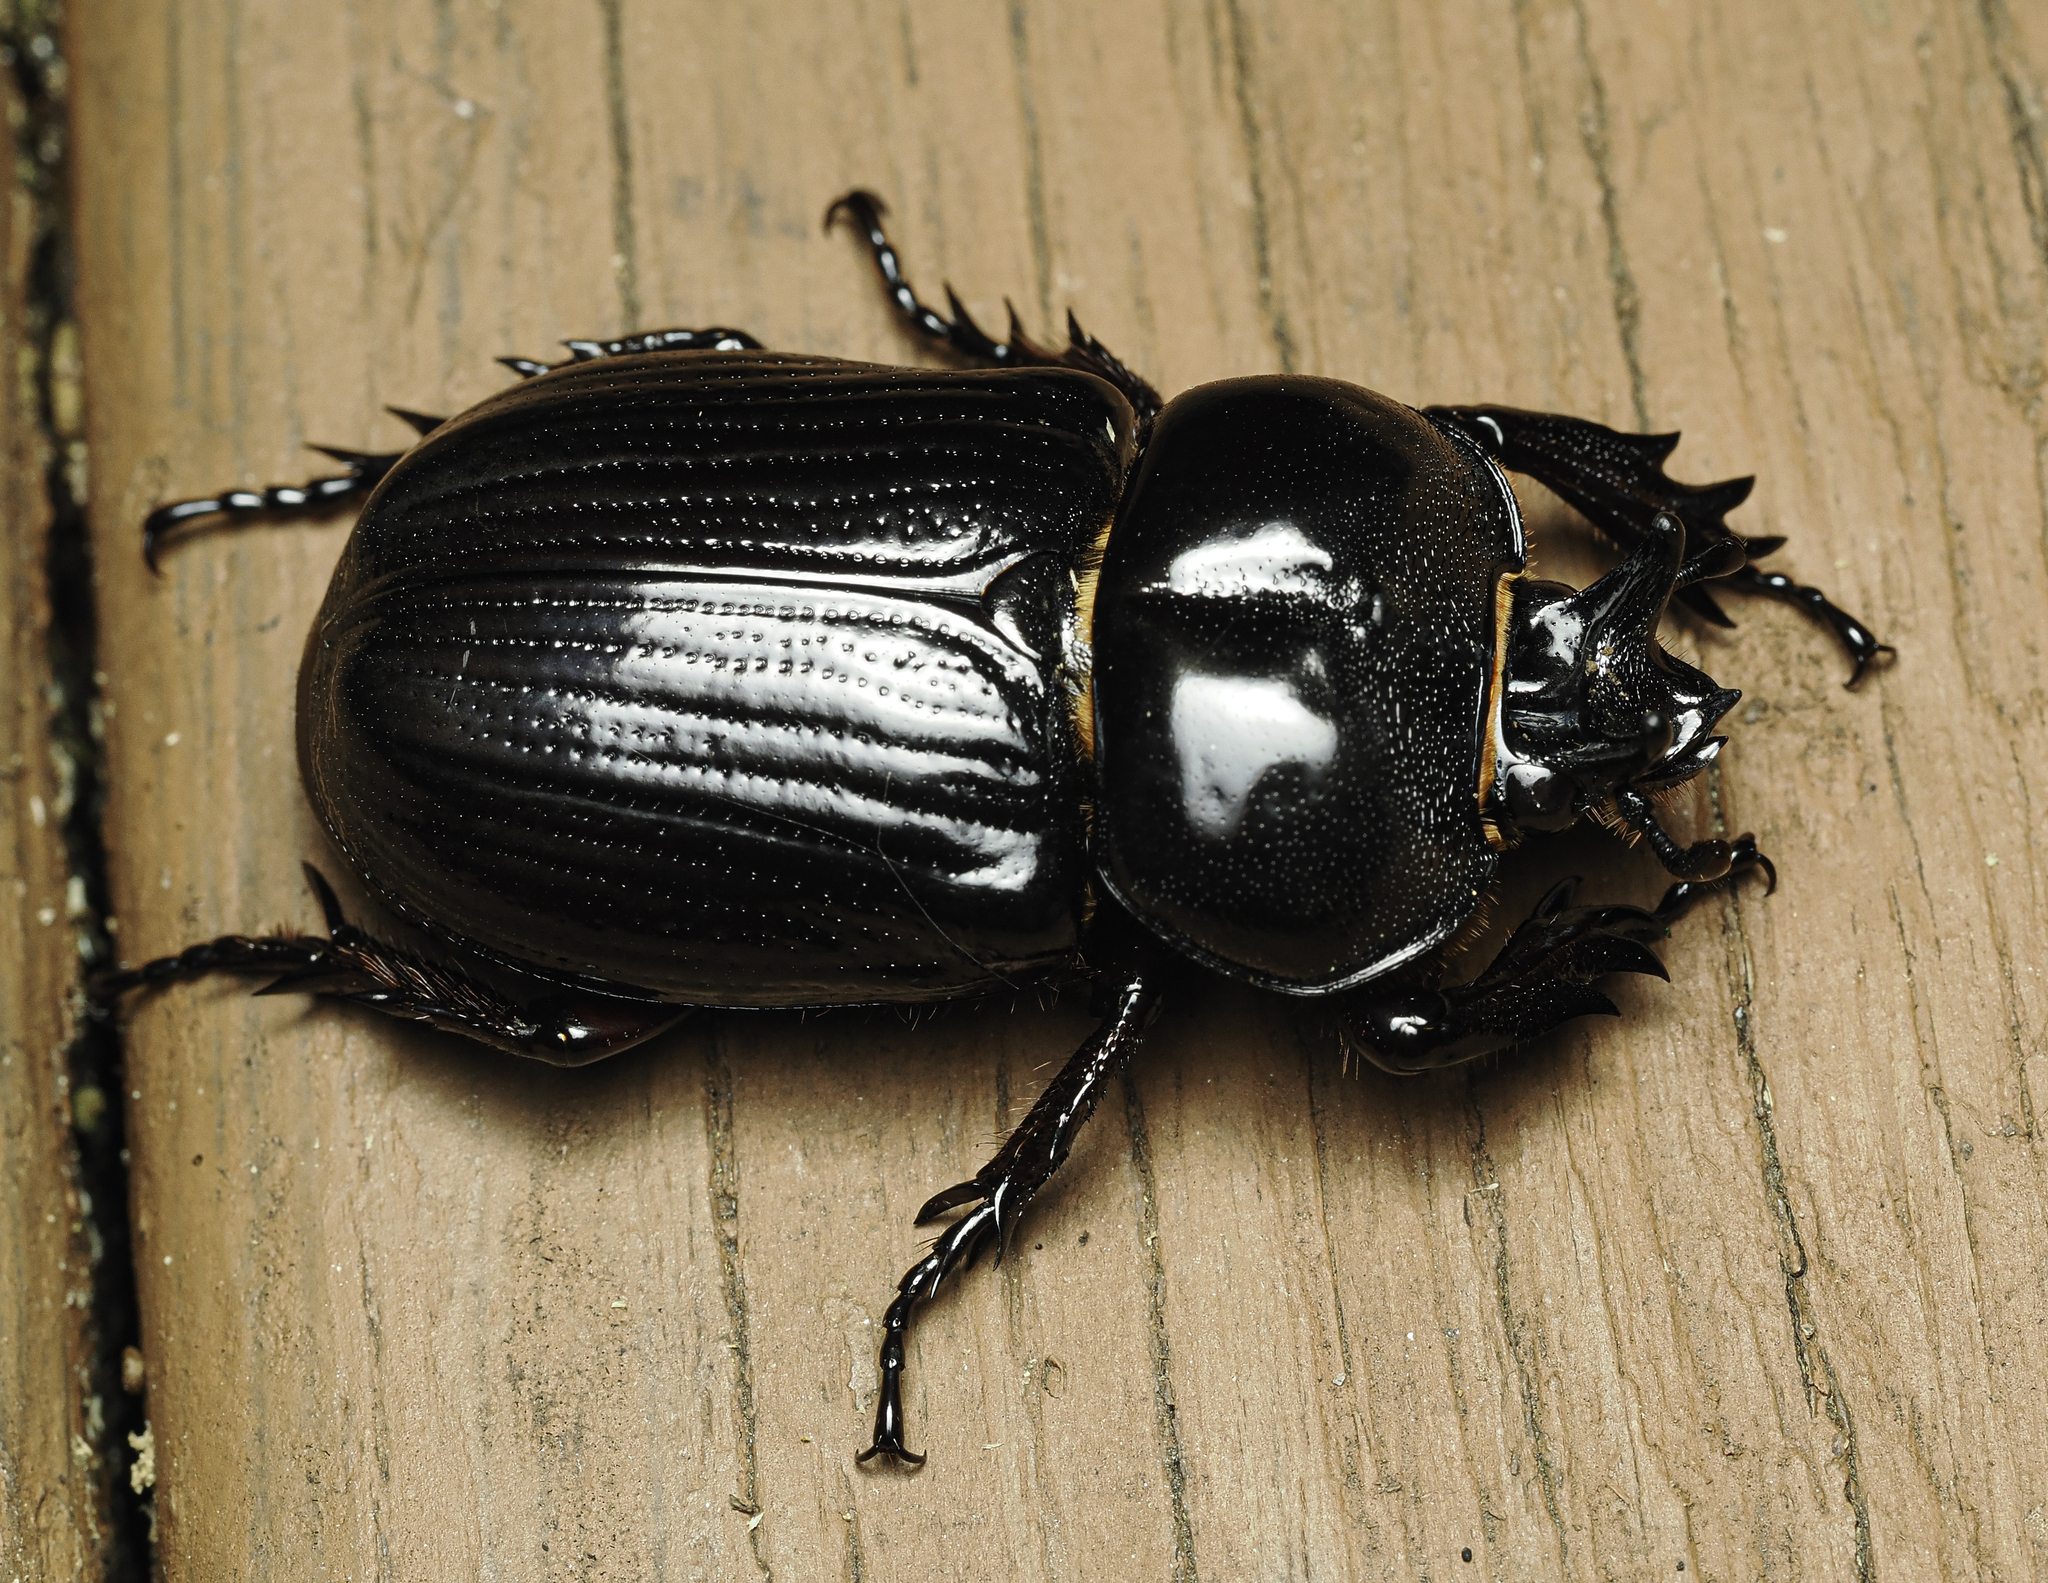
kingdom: Animalia
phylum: Arthropoda
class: Insecta
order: Coleoptera
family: Scarabaeidae
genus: Phileurus
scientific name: Phileurus truncatus
